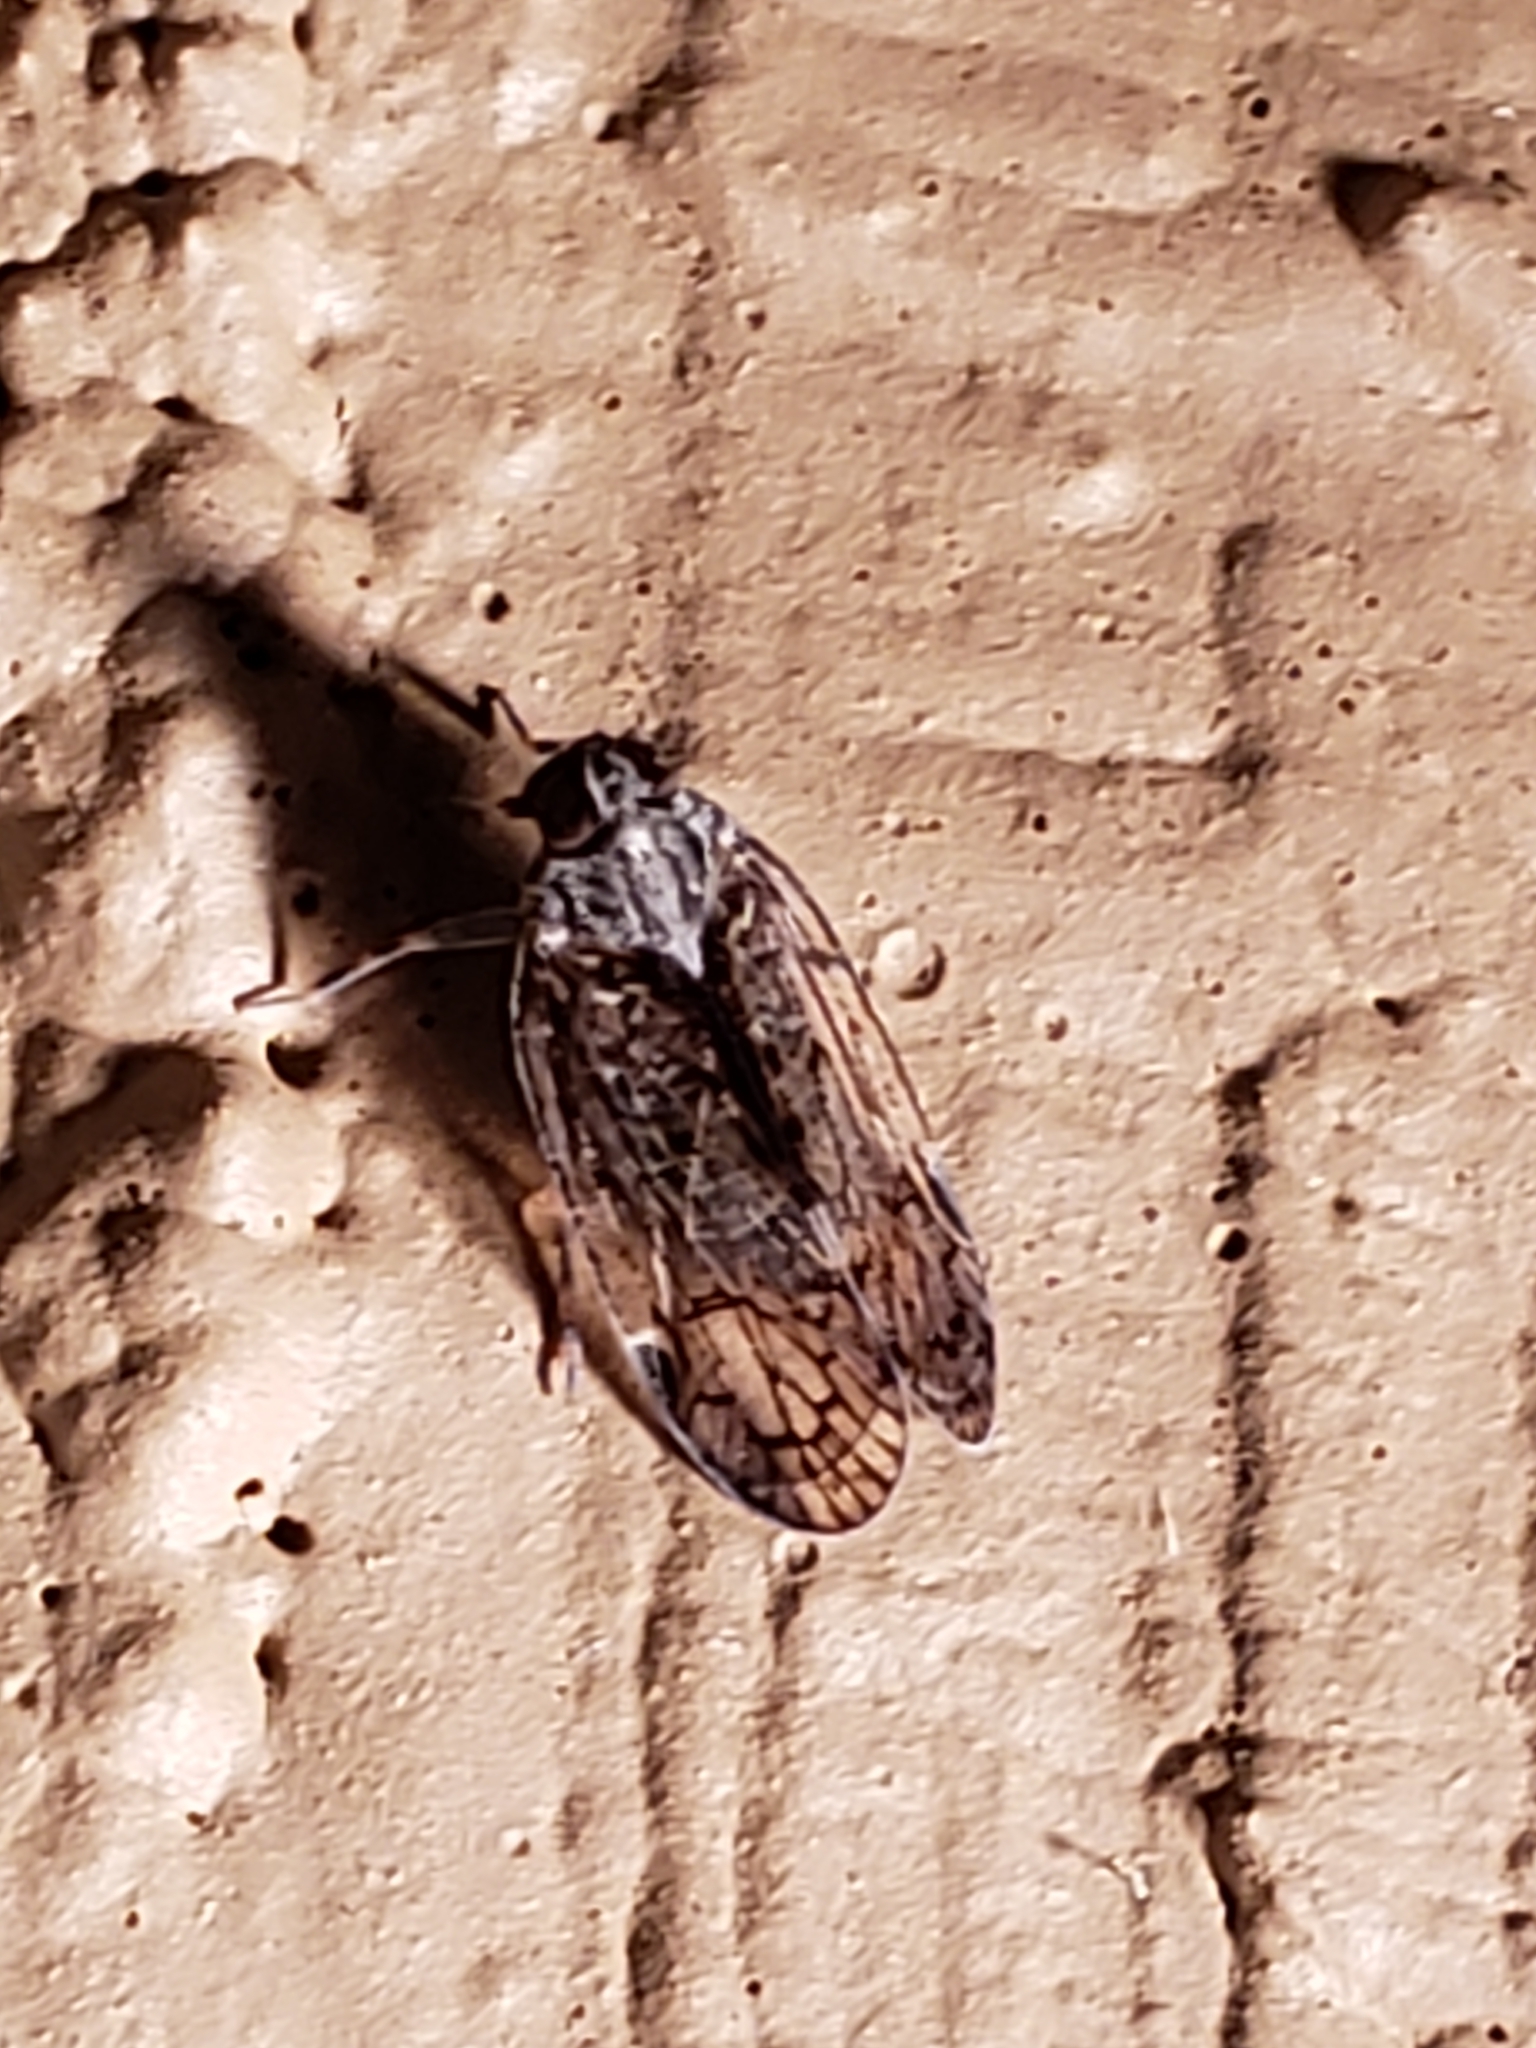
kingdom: Animalia
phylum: Arthropoda
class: Insecta
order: Hemiptera
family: Cixiidae
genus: Melanoliarus
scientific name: Melanoliarus placitus
